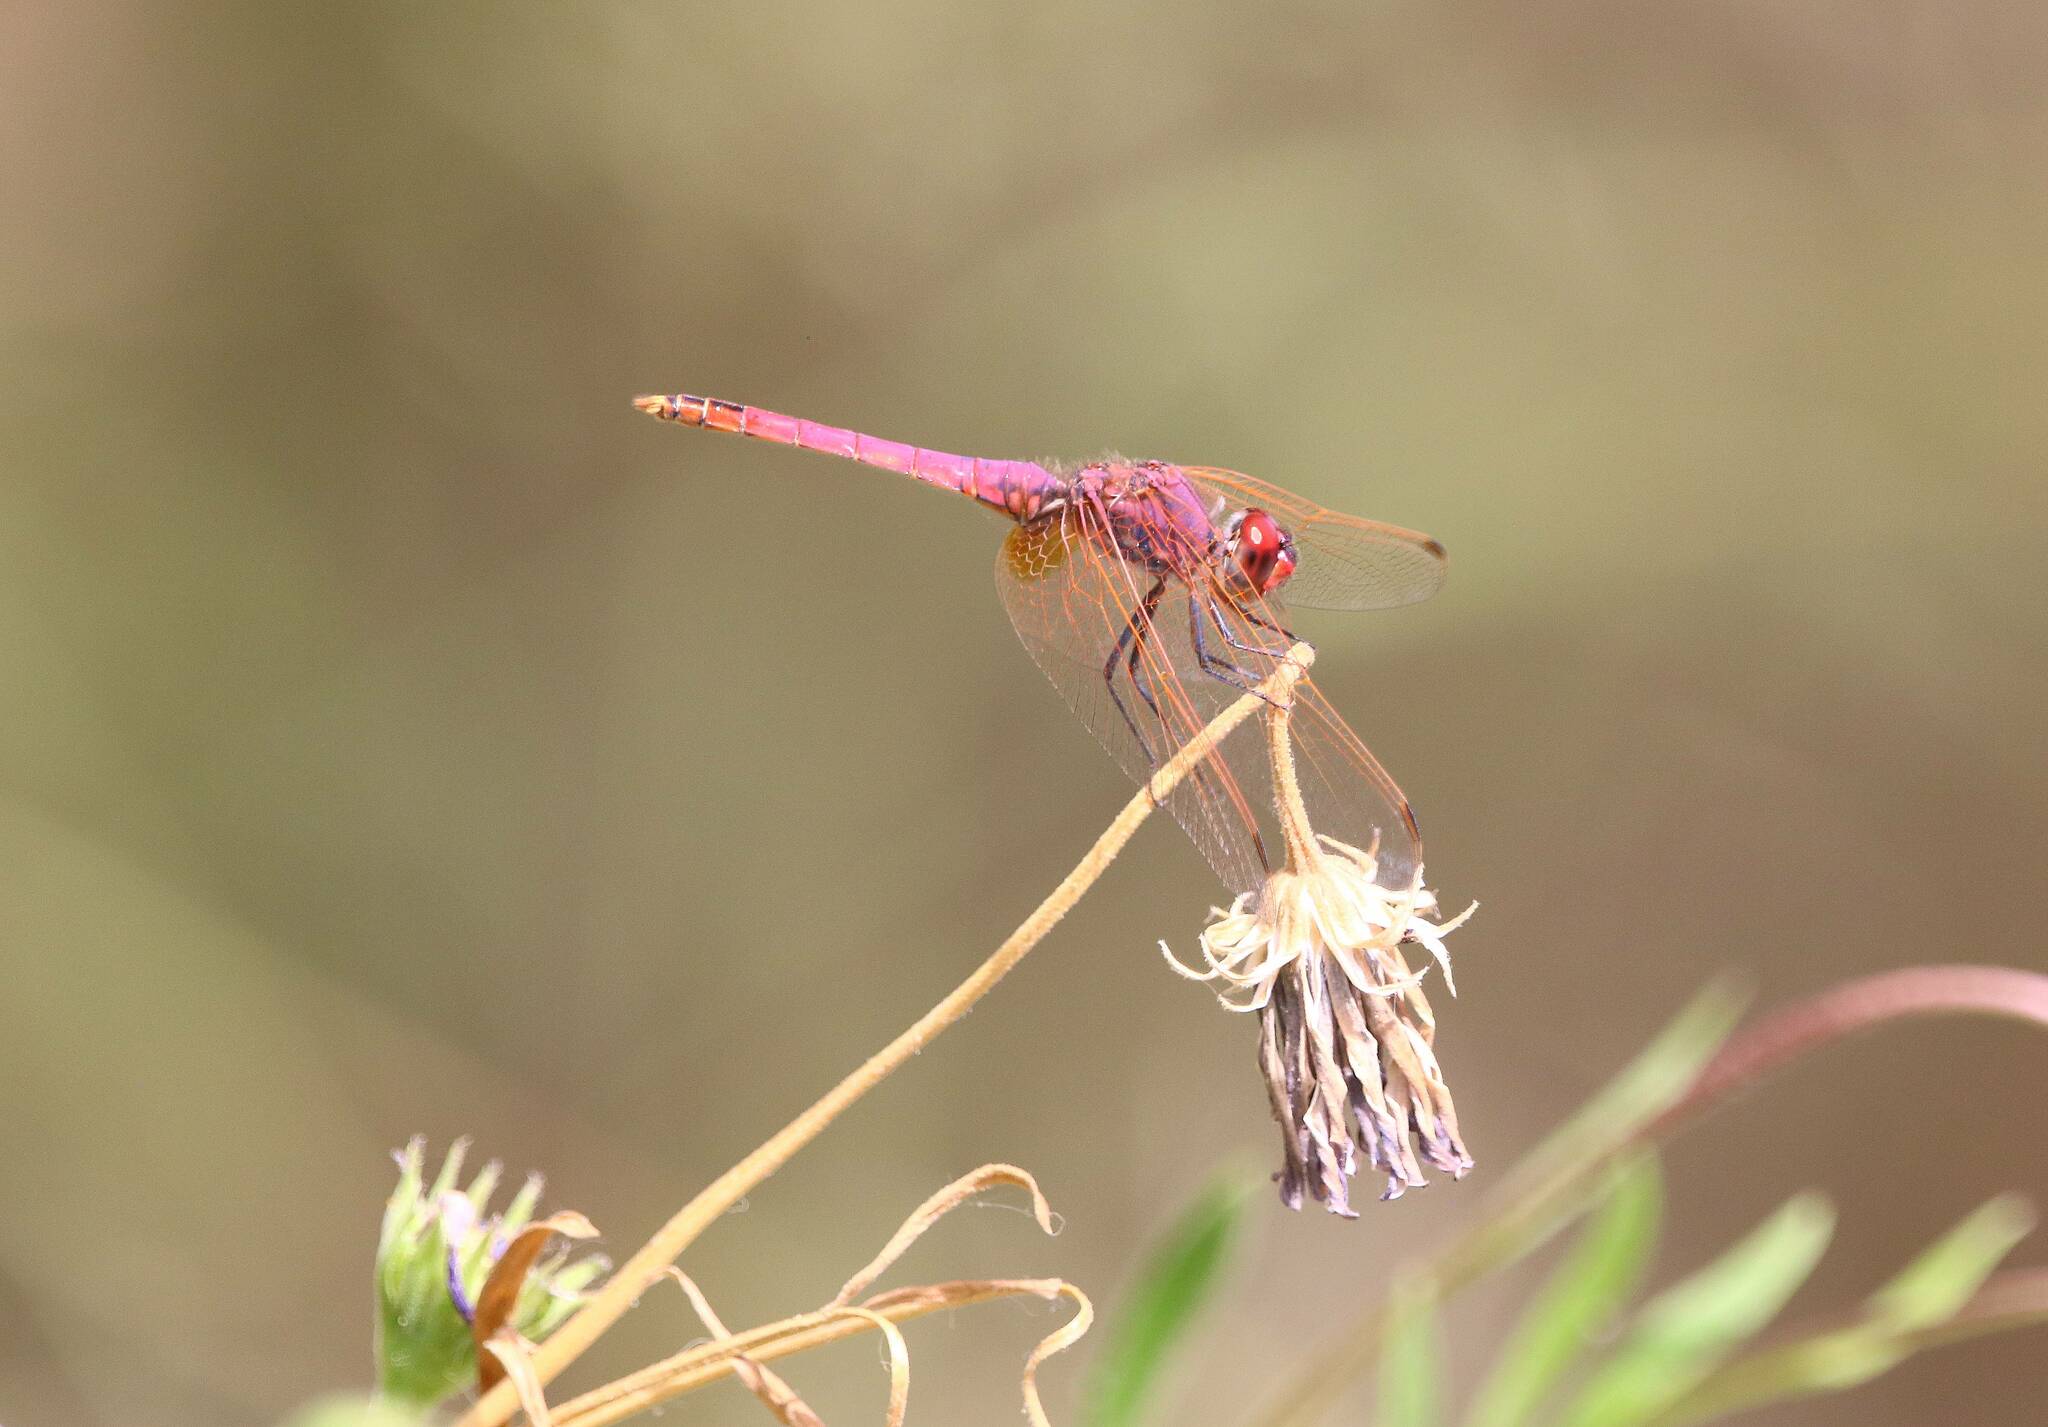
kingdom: Animalia
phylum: Arthropoda
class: Insecta
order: Odonata
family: Libellulidae
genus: Trithemis
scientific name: Trithemis annulata
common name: Violet dropwing
